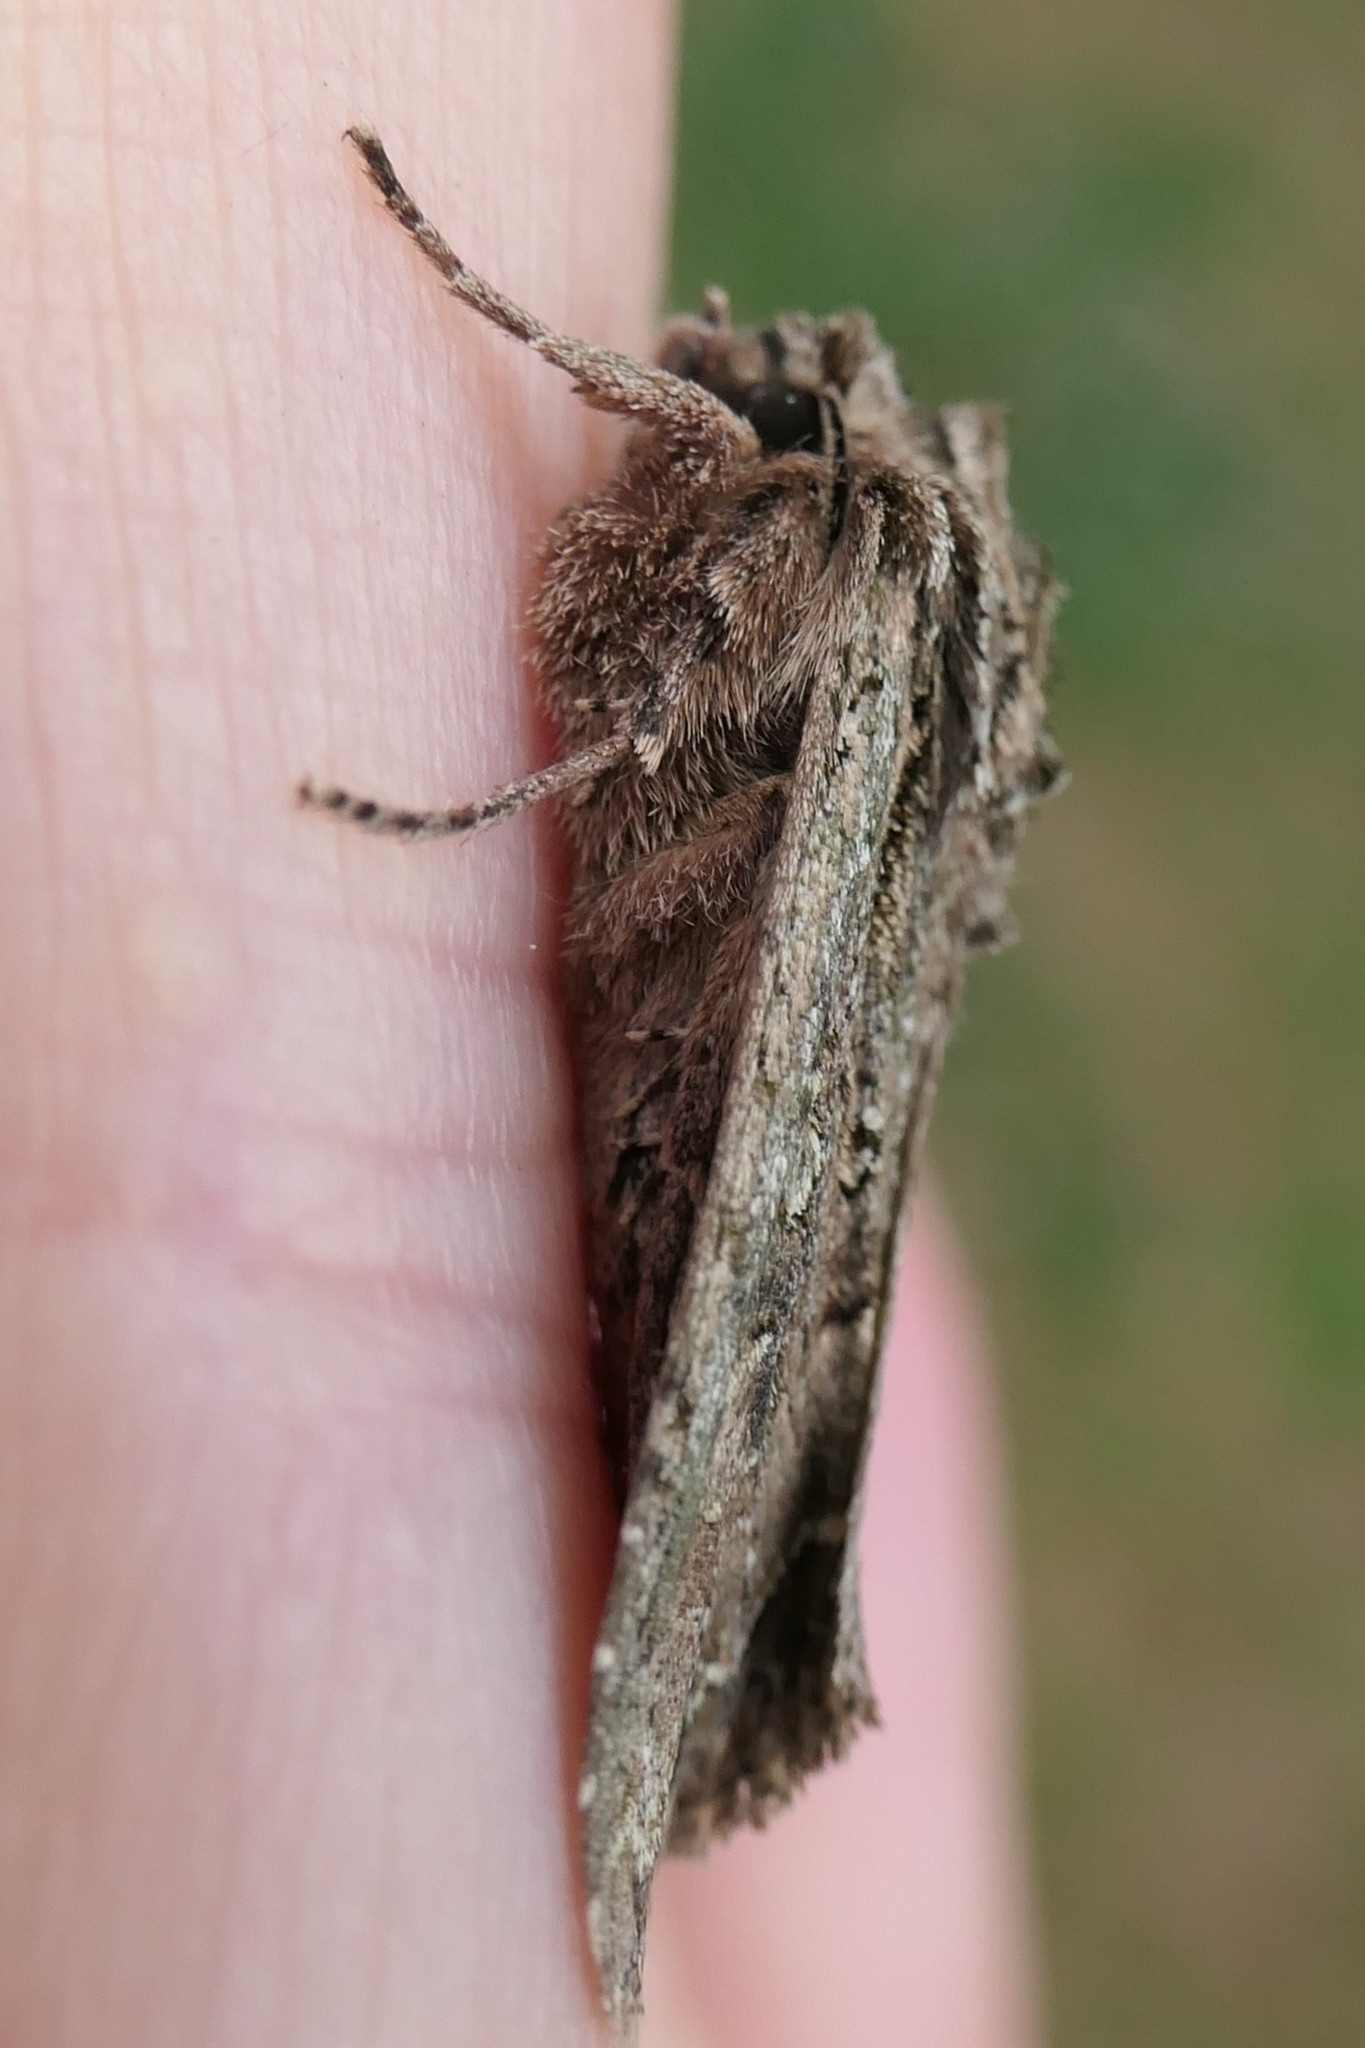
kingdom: Animalia
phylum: Arthropoda
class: Insecta
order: Lepidoptera
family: Noctuidae
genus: Ichneutica
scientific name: Ichneutica mutans
